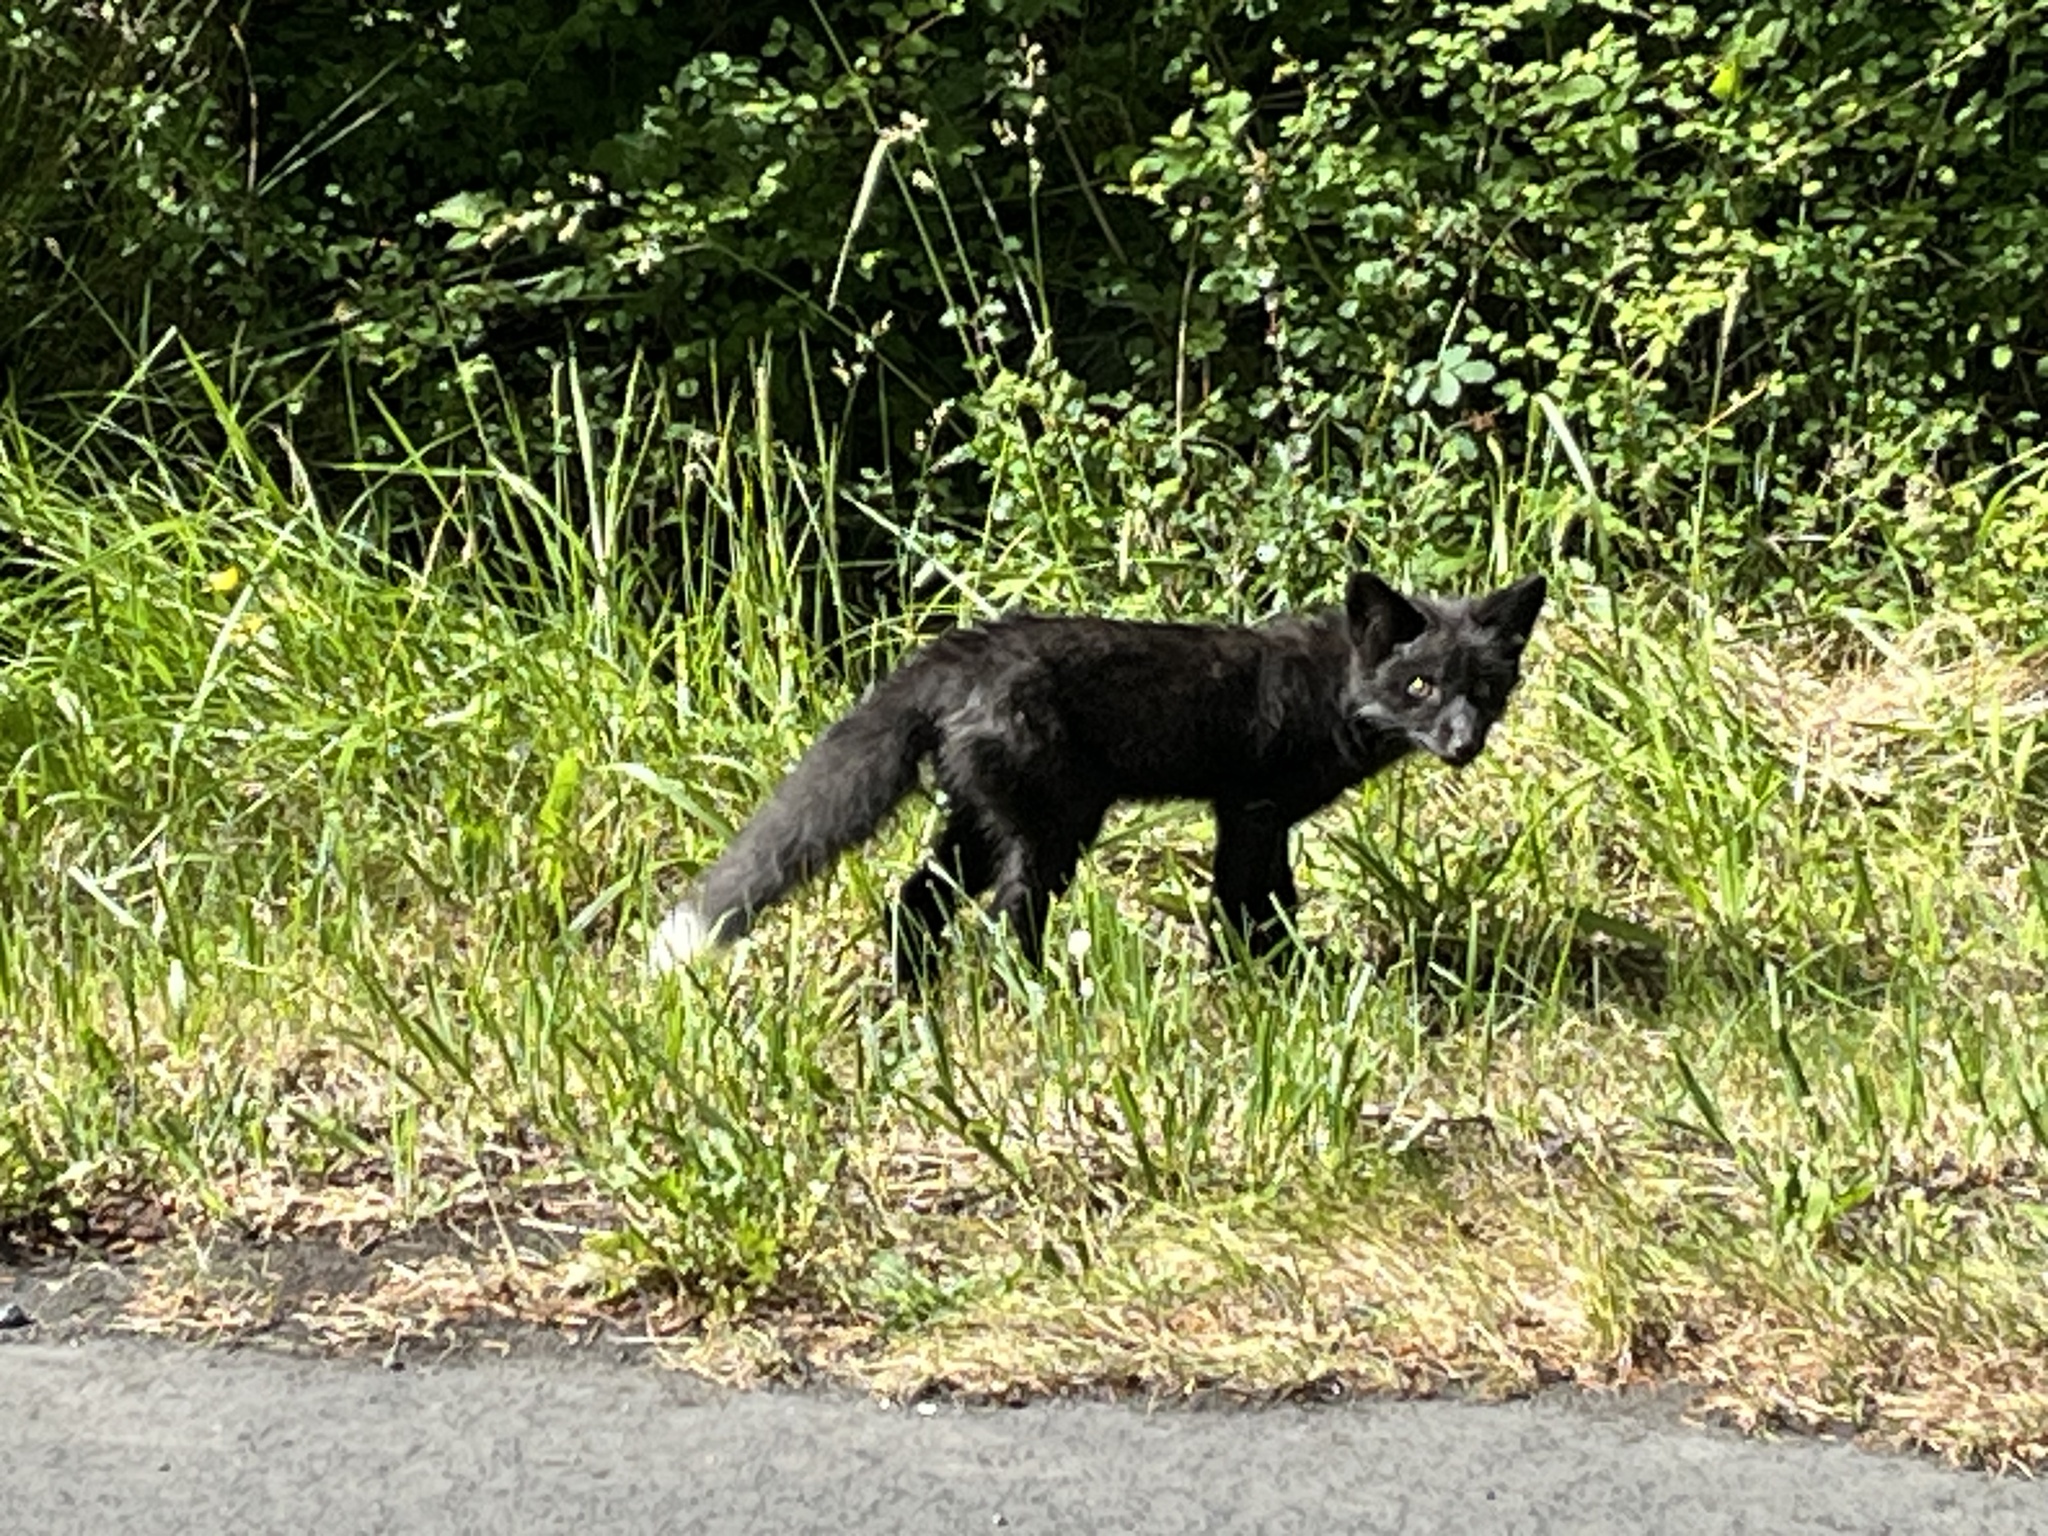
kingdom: Animalia
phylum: Chordata
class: Mammalia
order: Carnivora
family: Canidae
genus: Vulpes
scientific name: Vulpes vulpes
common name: Red fox
